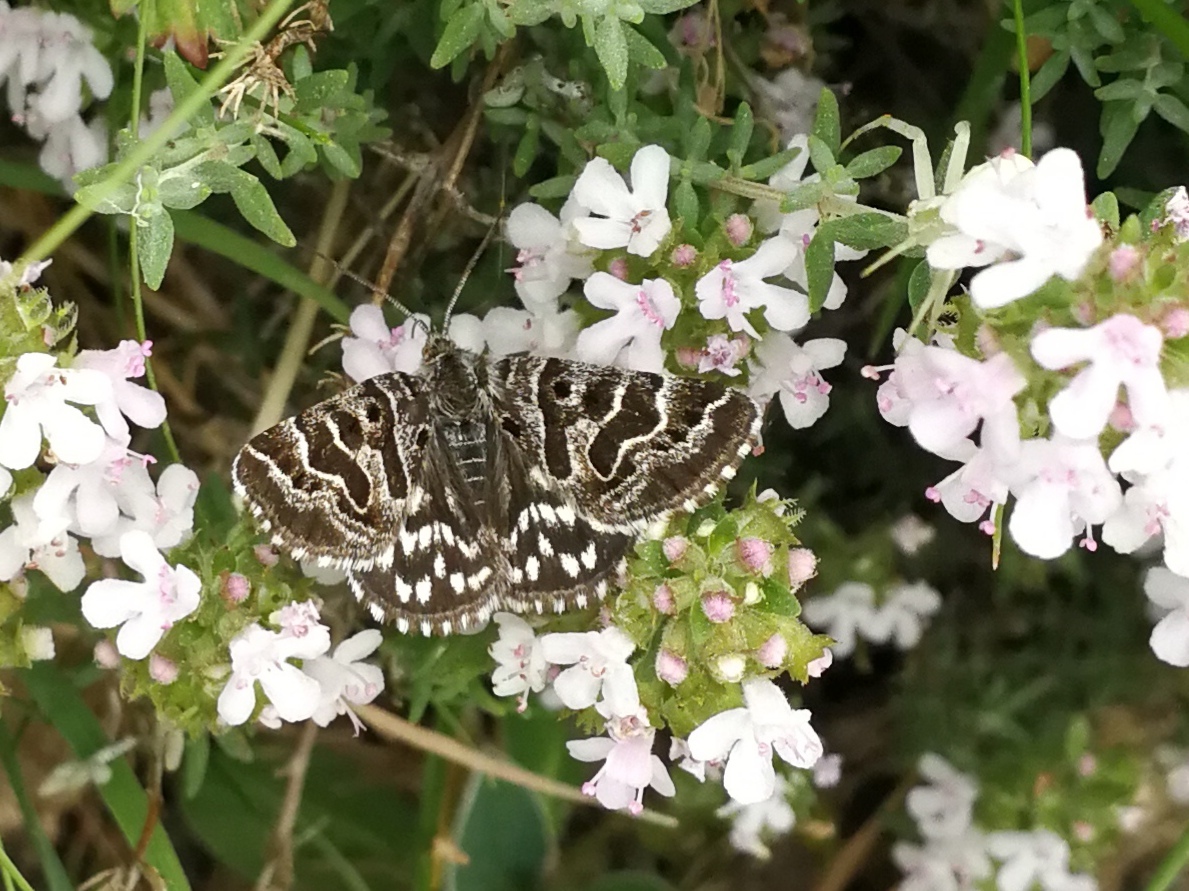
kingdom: Animalia
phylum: Arthropoda
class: Insecta
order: Lepidoptera
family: Erebidae
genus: Callistege
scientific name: Callistege mi
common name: Mother shipton
